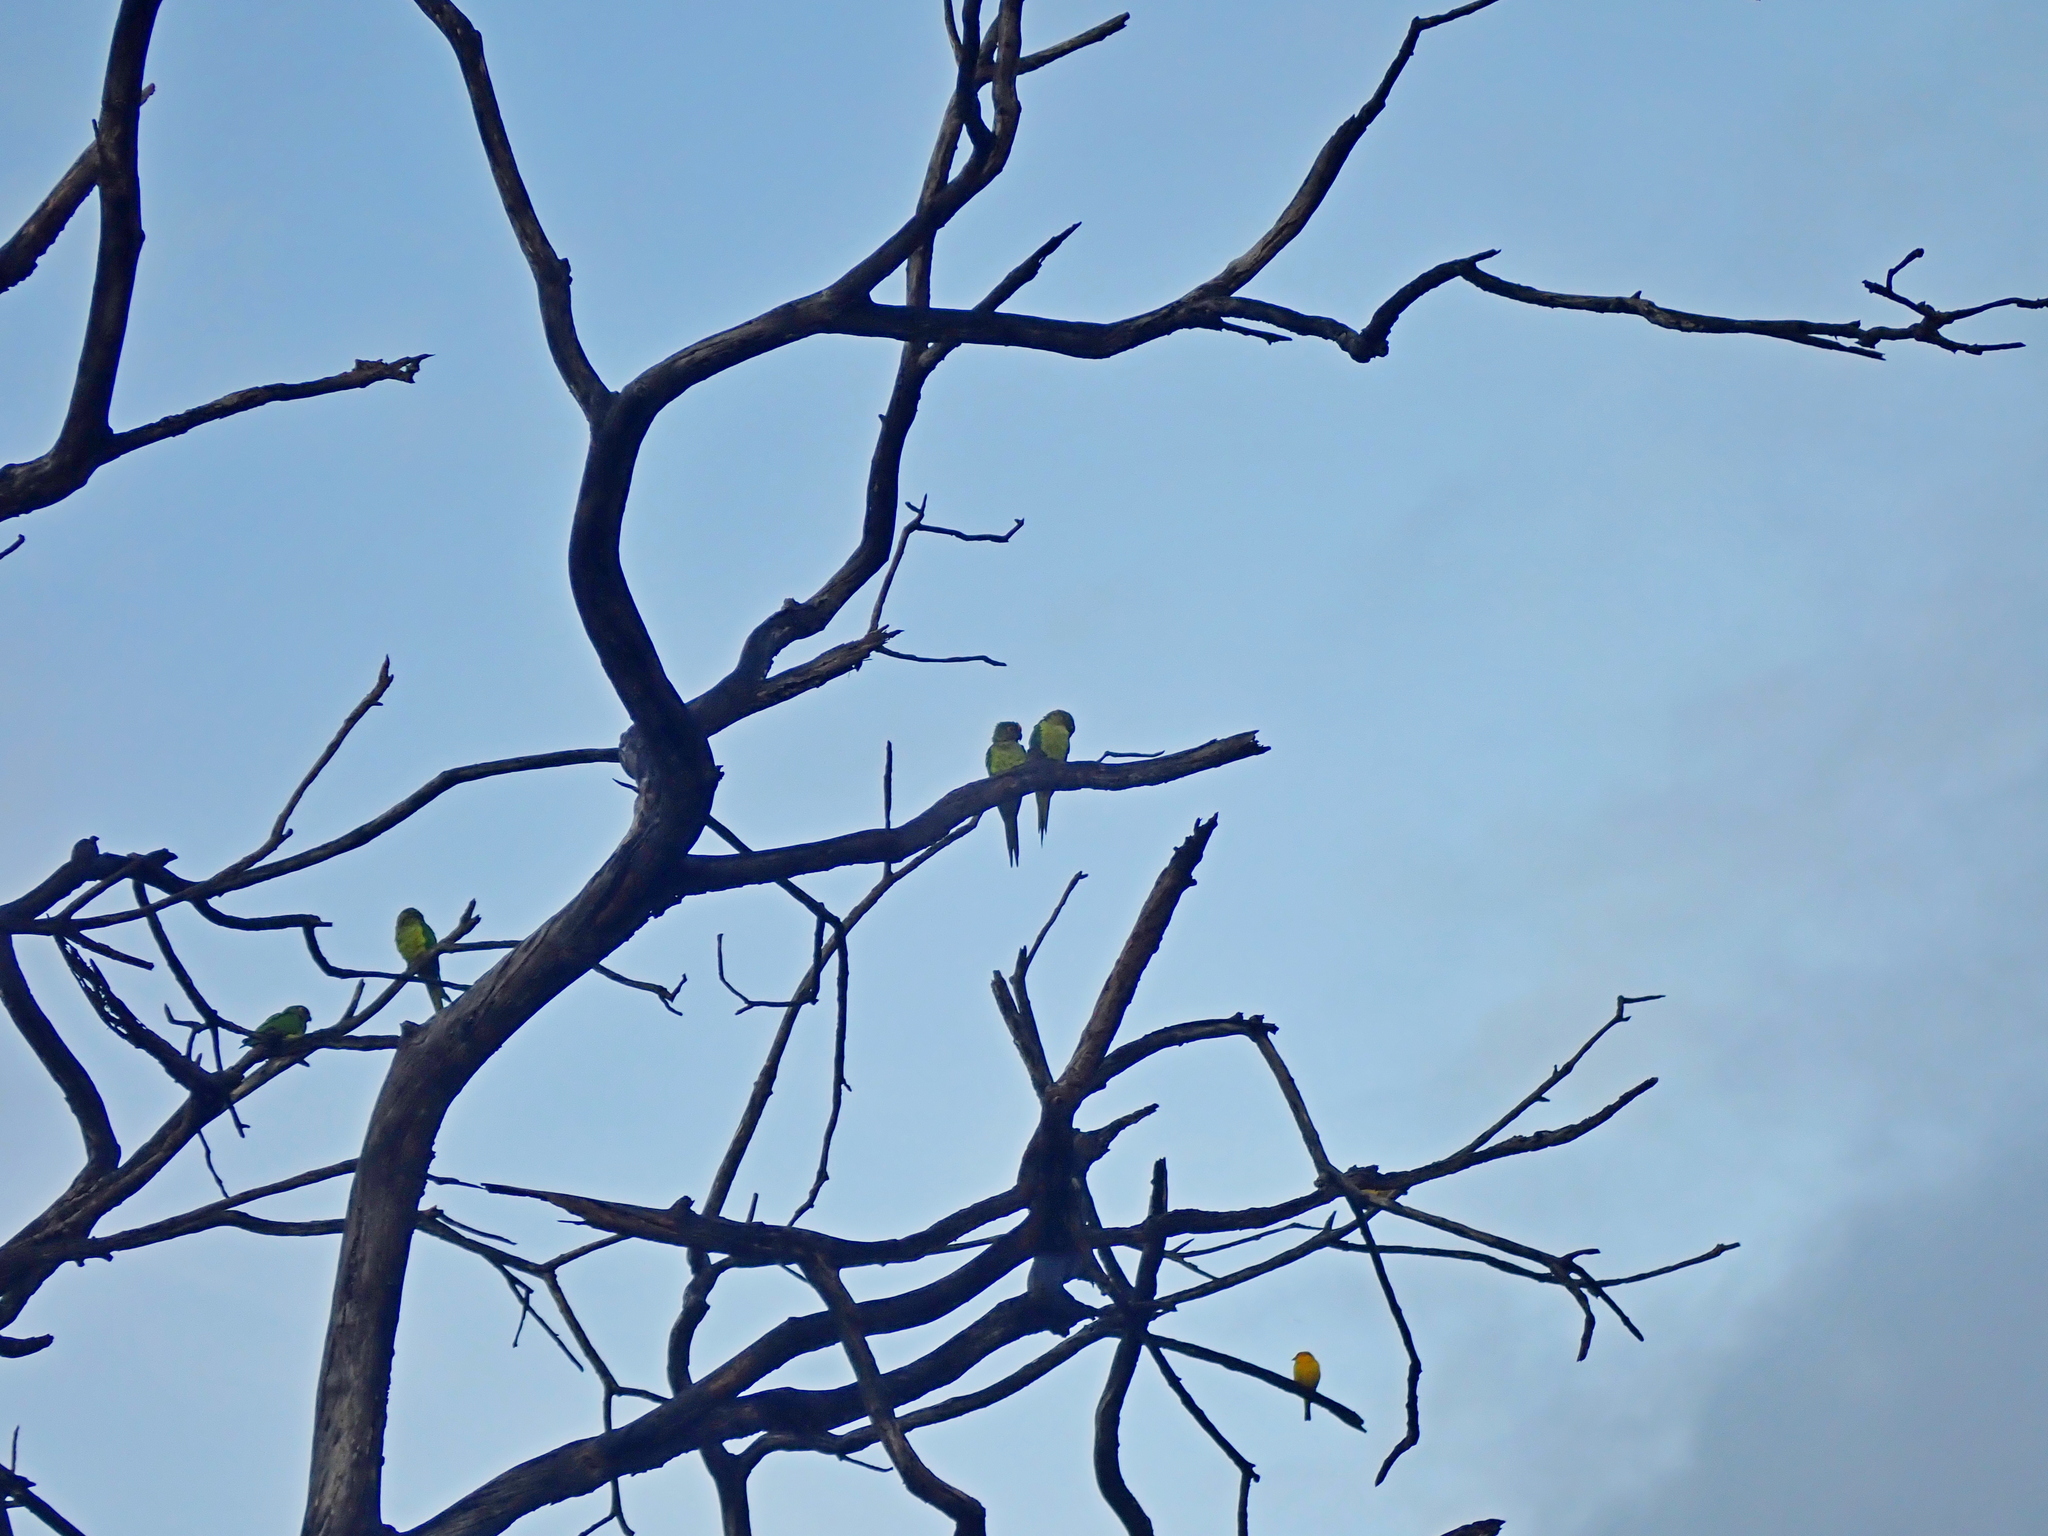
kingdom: Animalia
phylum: Chordata
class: Aves
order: Psittaciformes
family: Psittacidae
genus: Aratinga
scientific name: Aratinga aurea
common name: Peach-fronted parakeet
